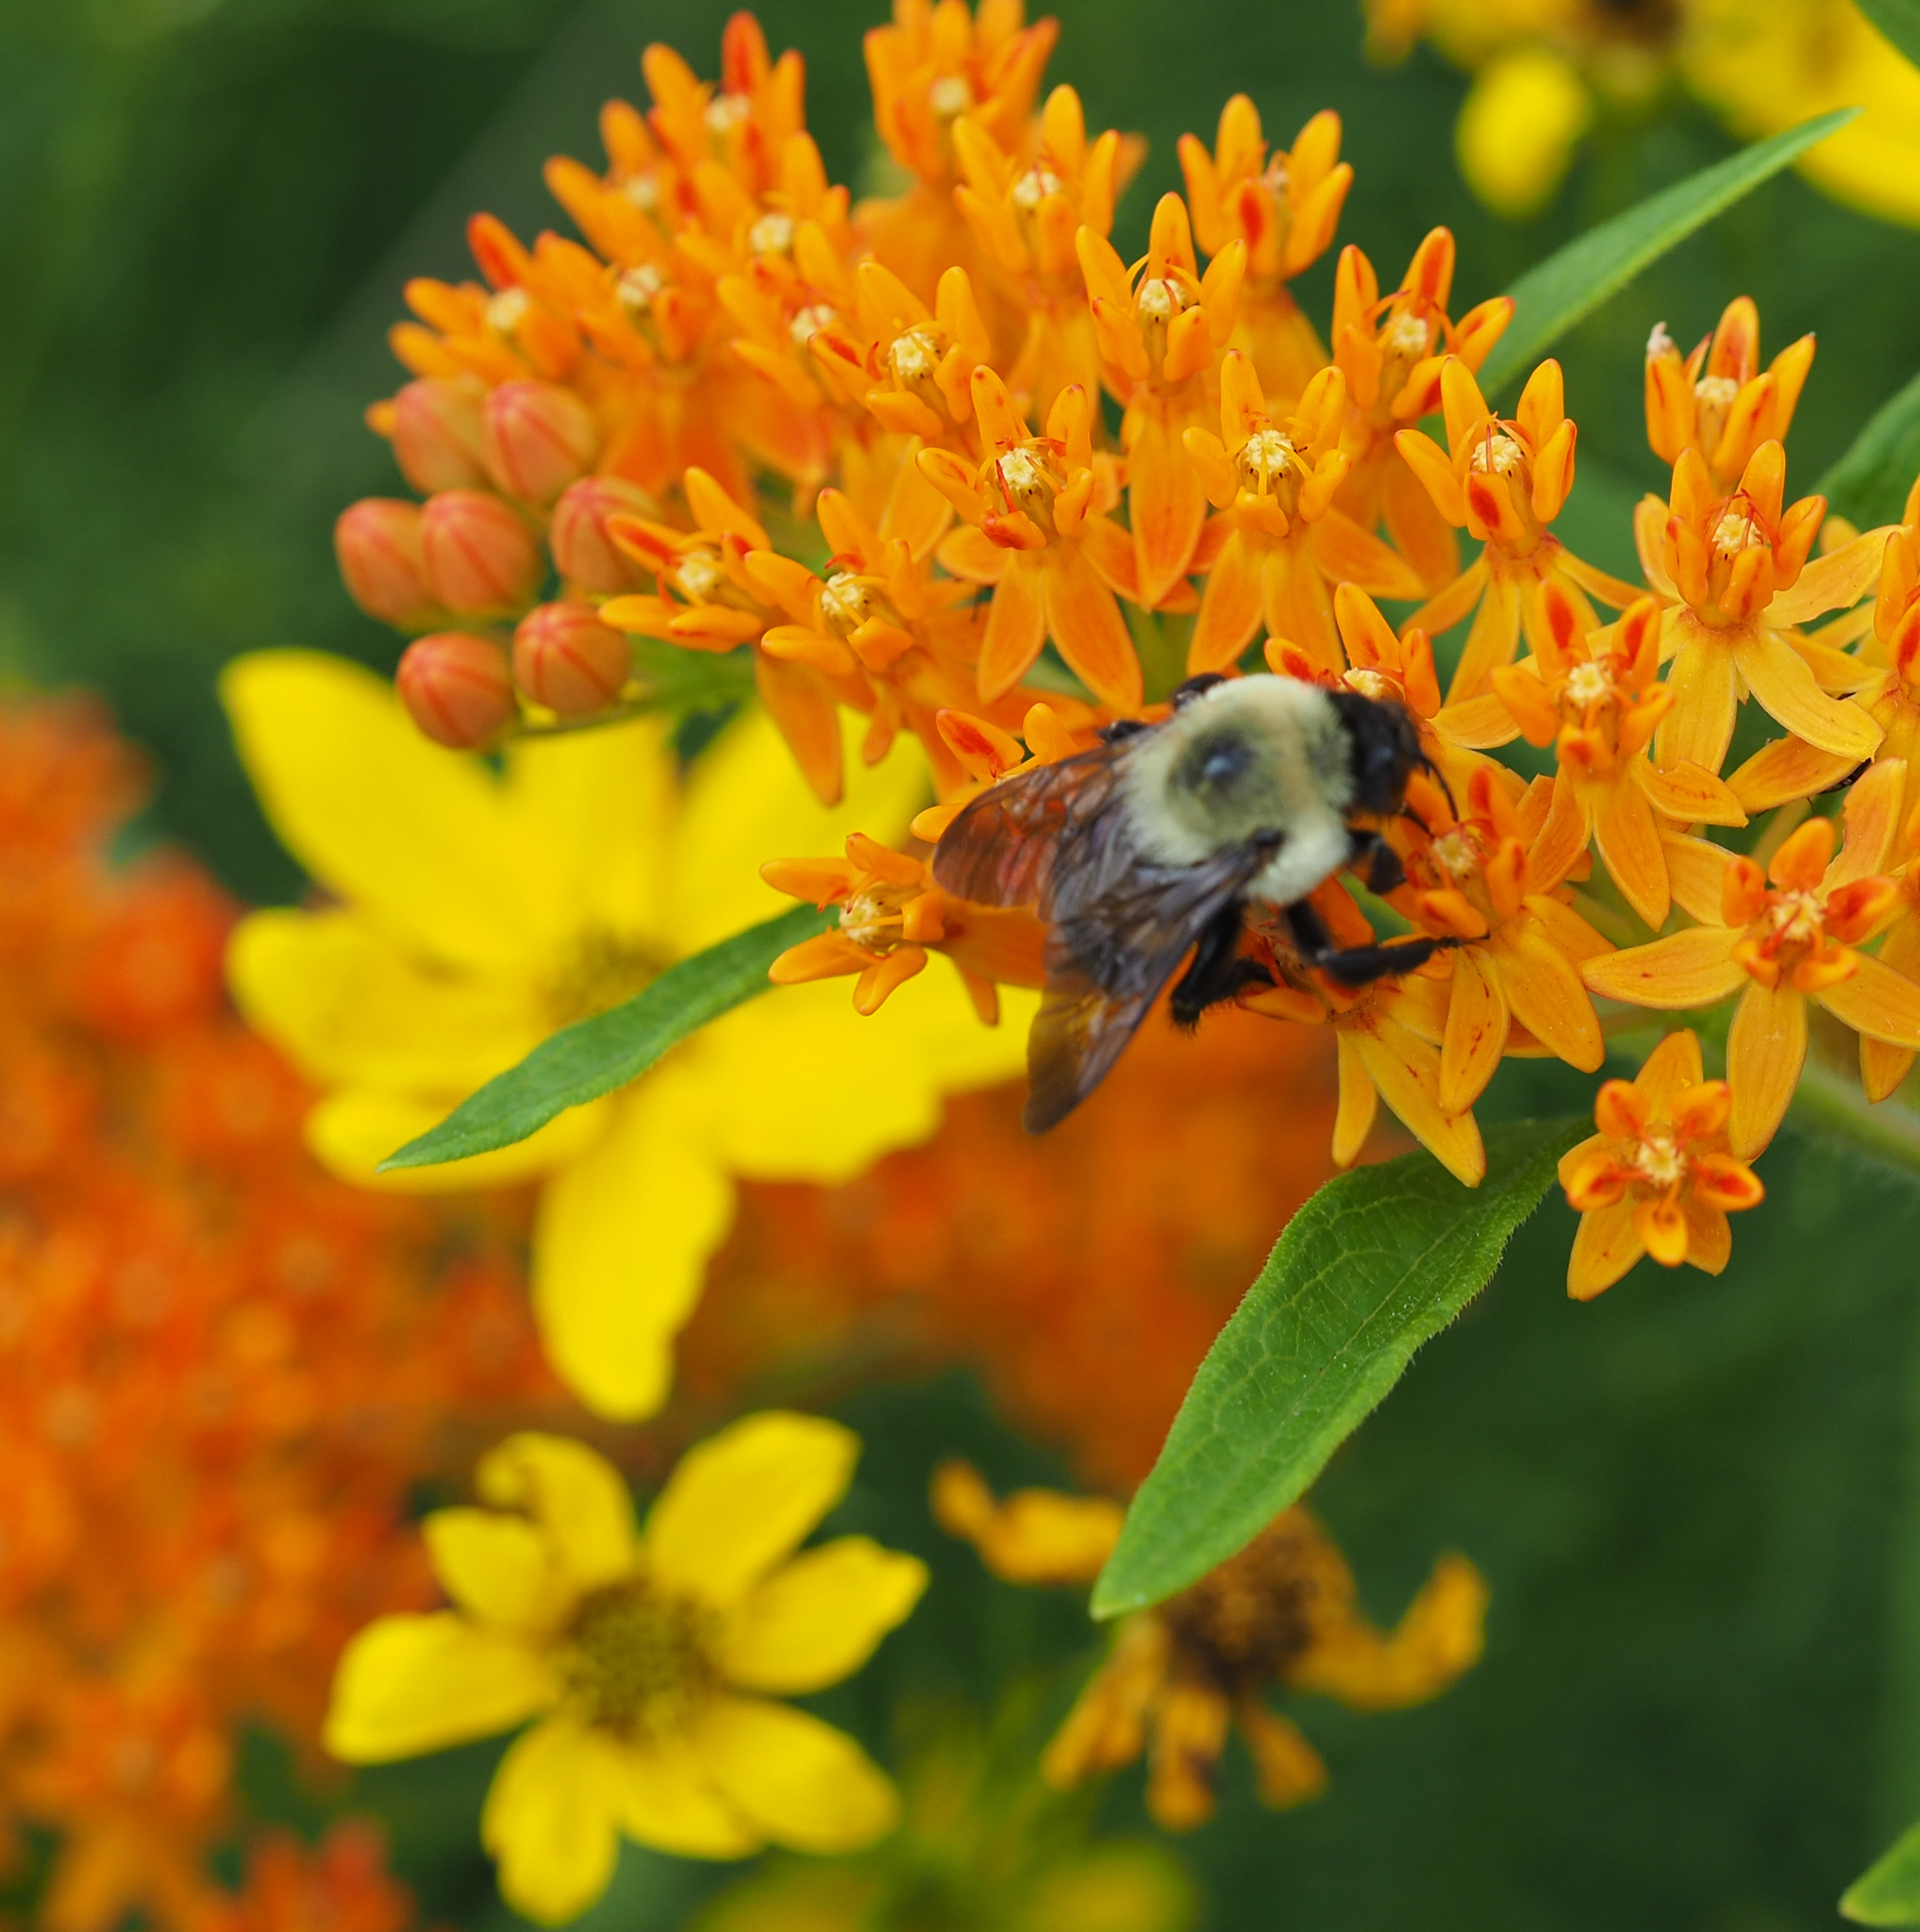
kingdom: Animalia
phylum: Arthropoda
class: Insecta
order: Hymenoptera
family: Apidae
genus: Bombus
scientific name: Bombus griseocollis
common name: Brown-belted bumble bee
